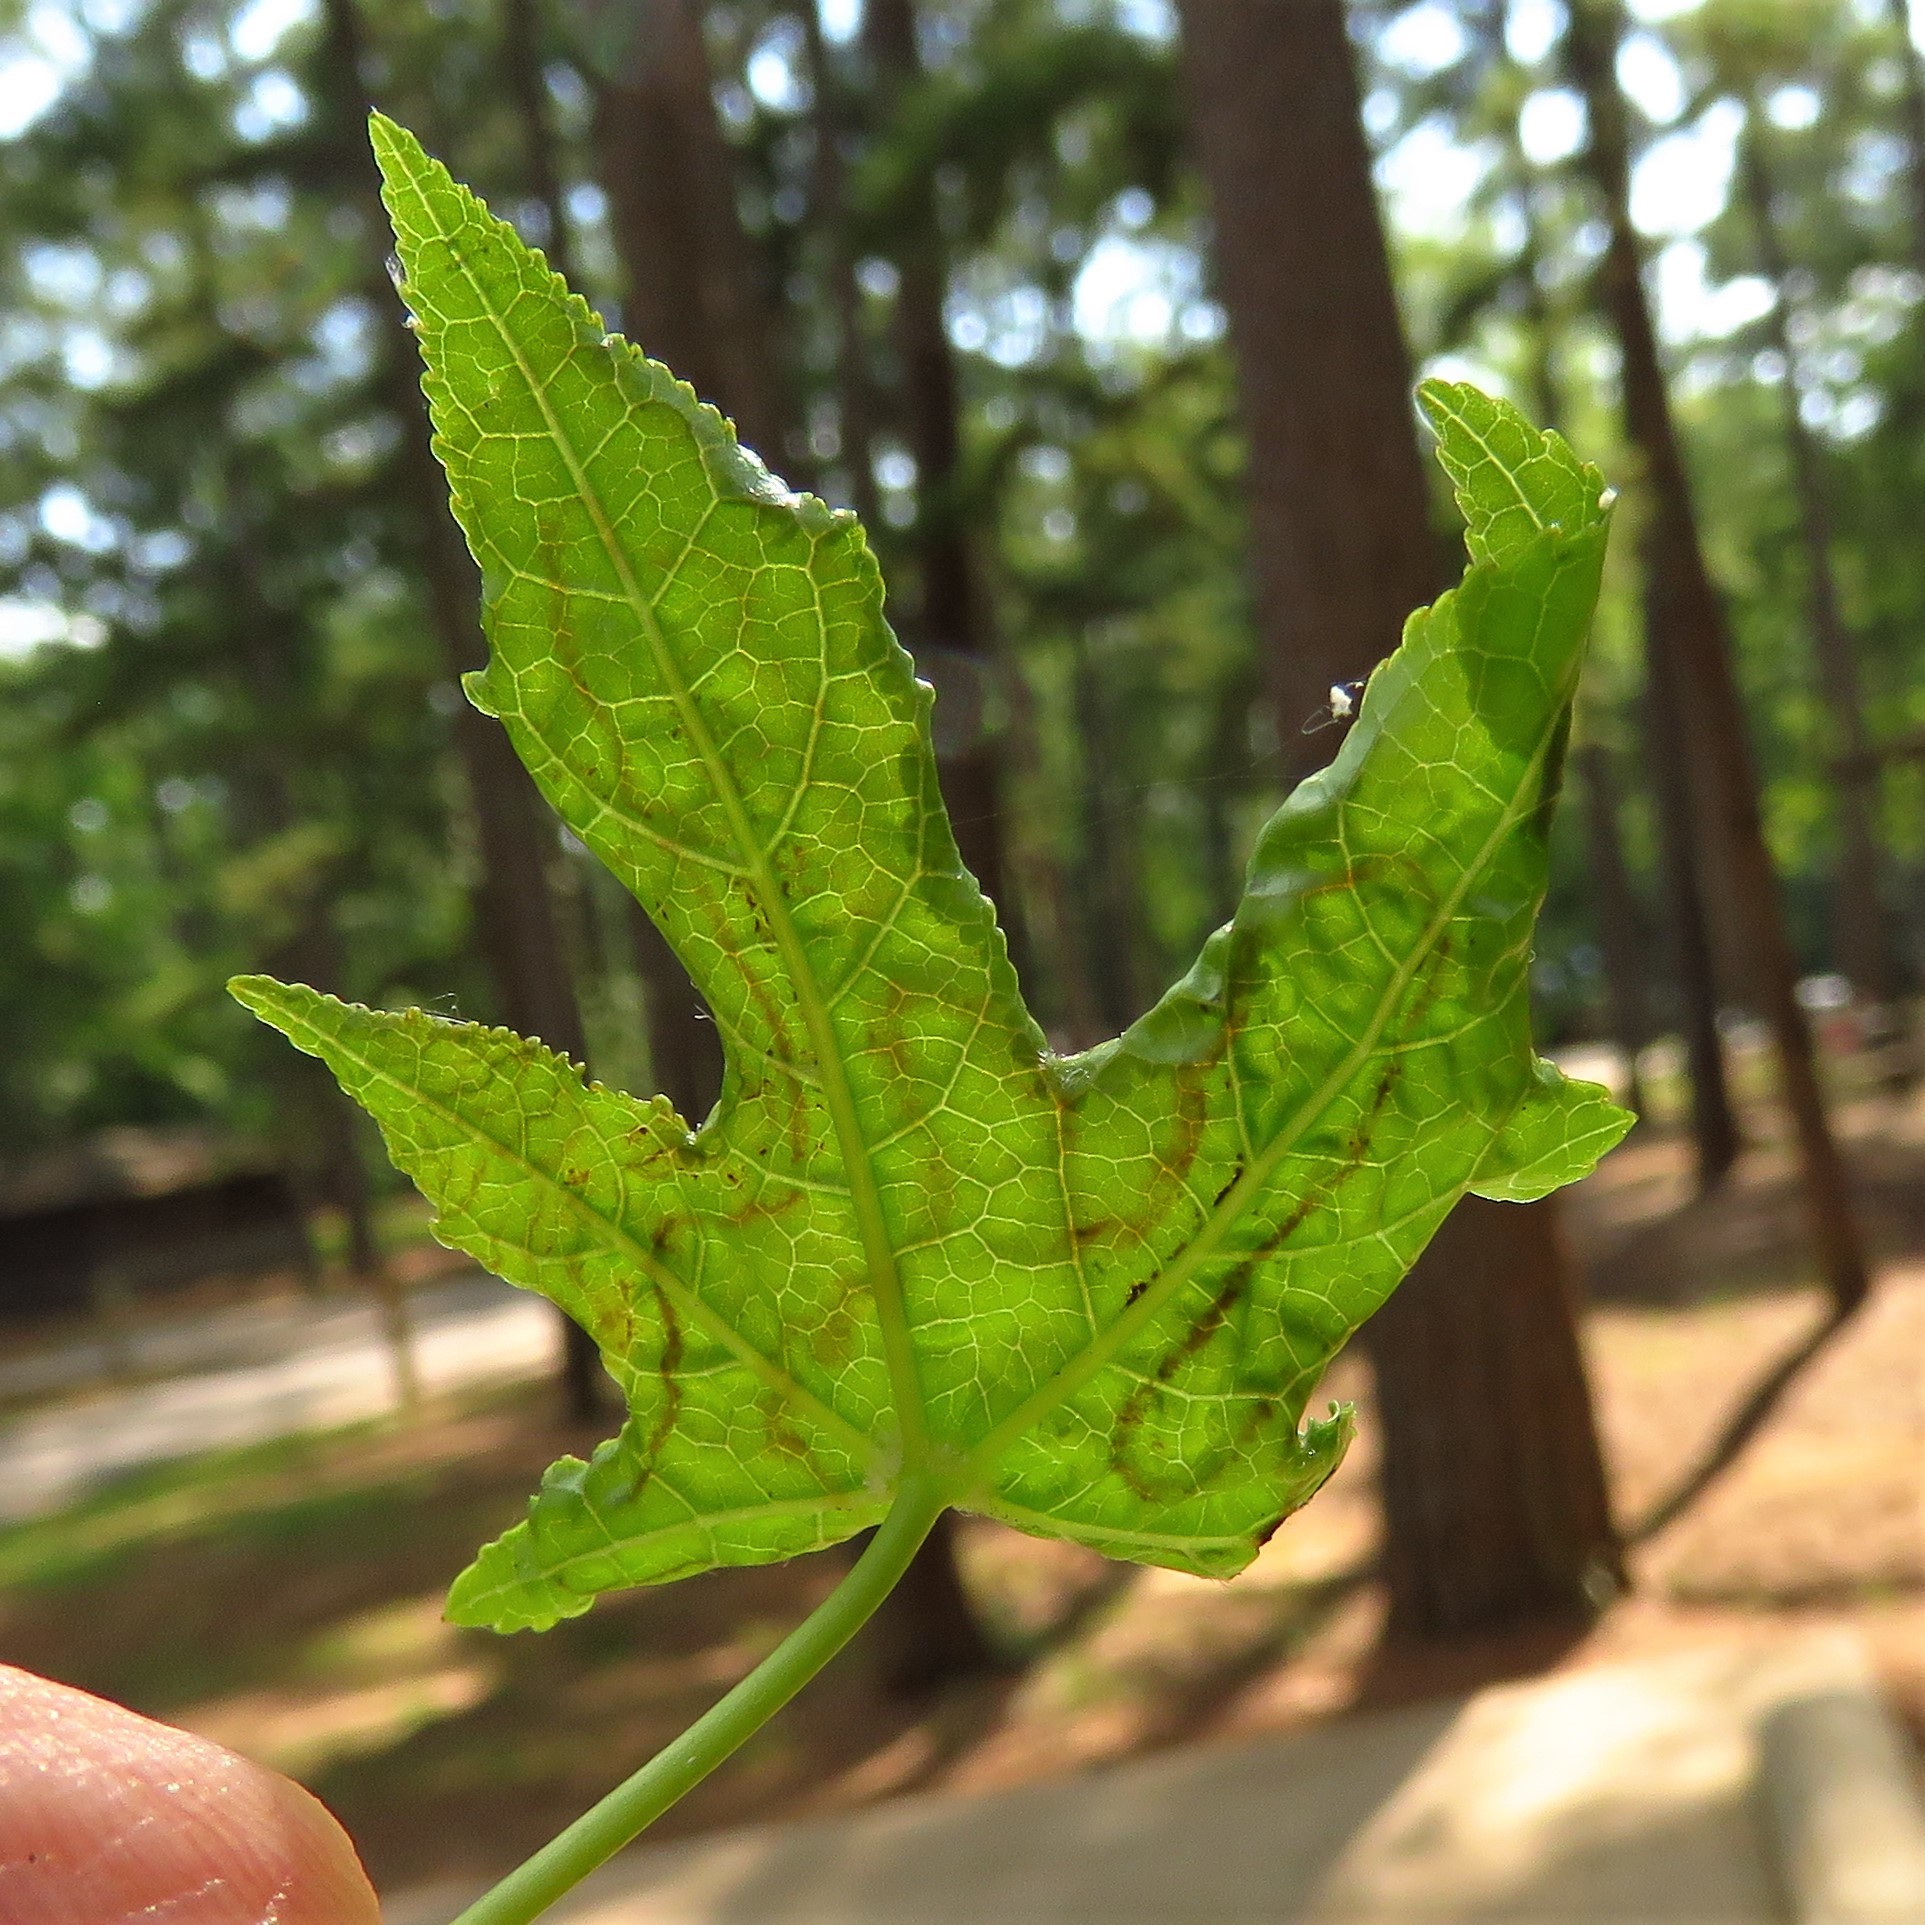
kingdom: Animalia
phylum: Arthropoda
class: Insecta
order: Lepidoptera
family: Gracillariidae
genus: Phyllocnistis
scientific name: Phyllocnistis liquidambarisella
